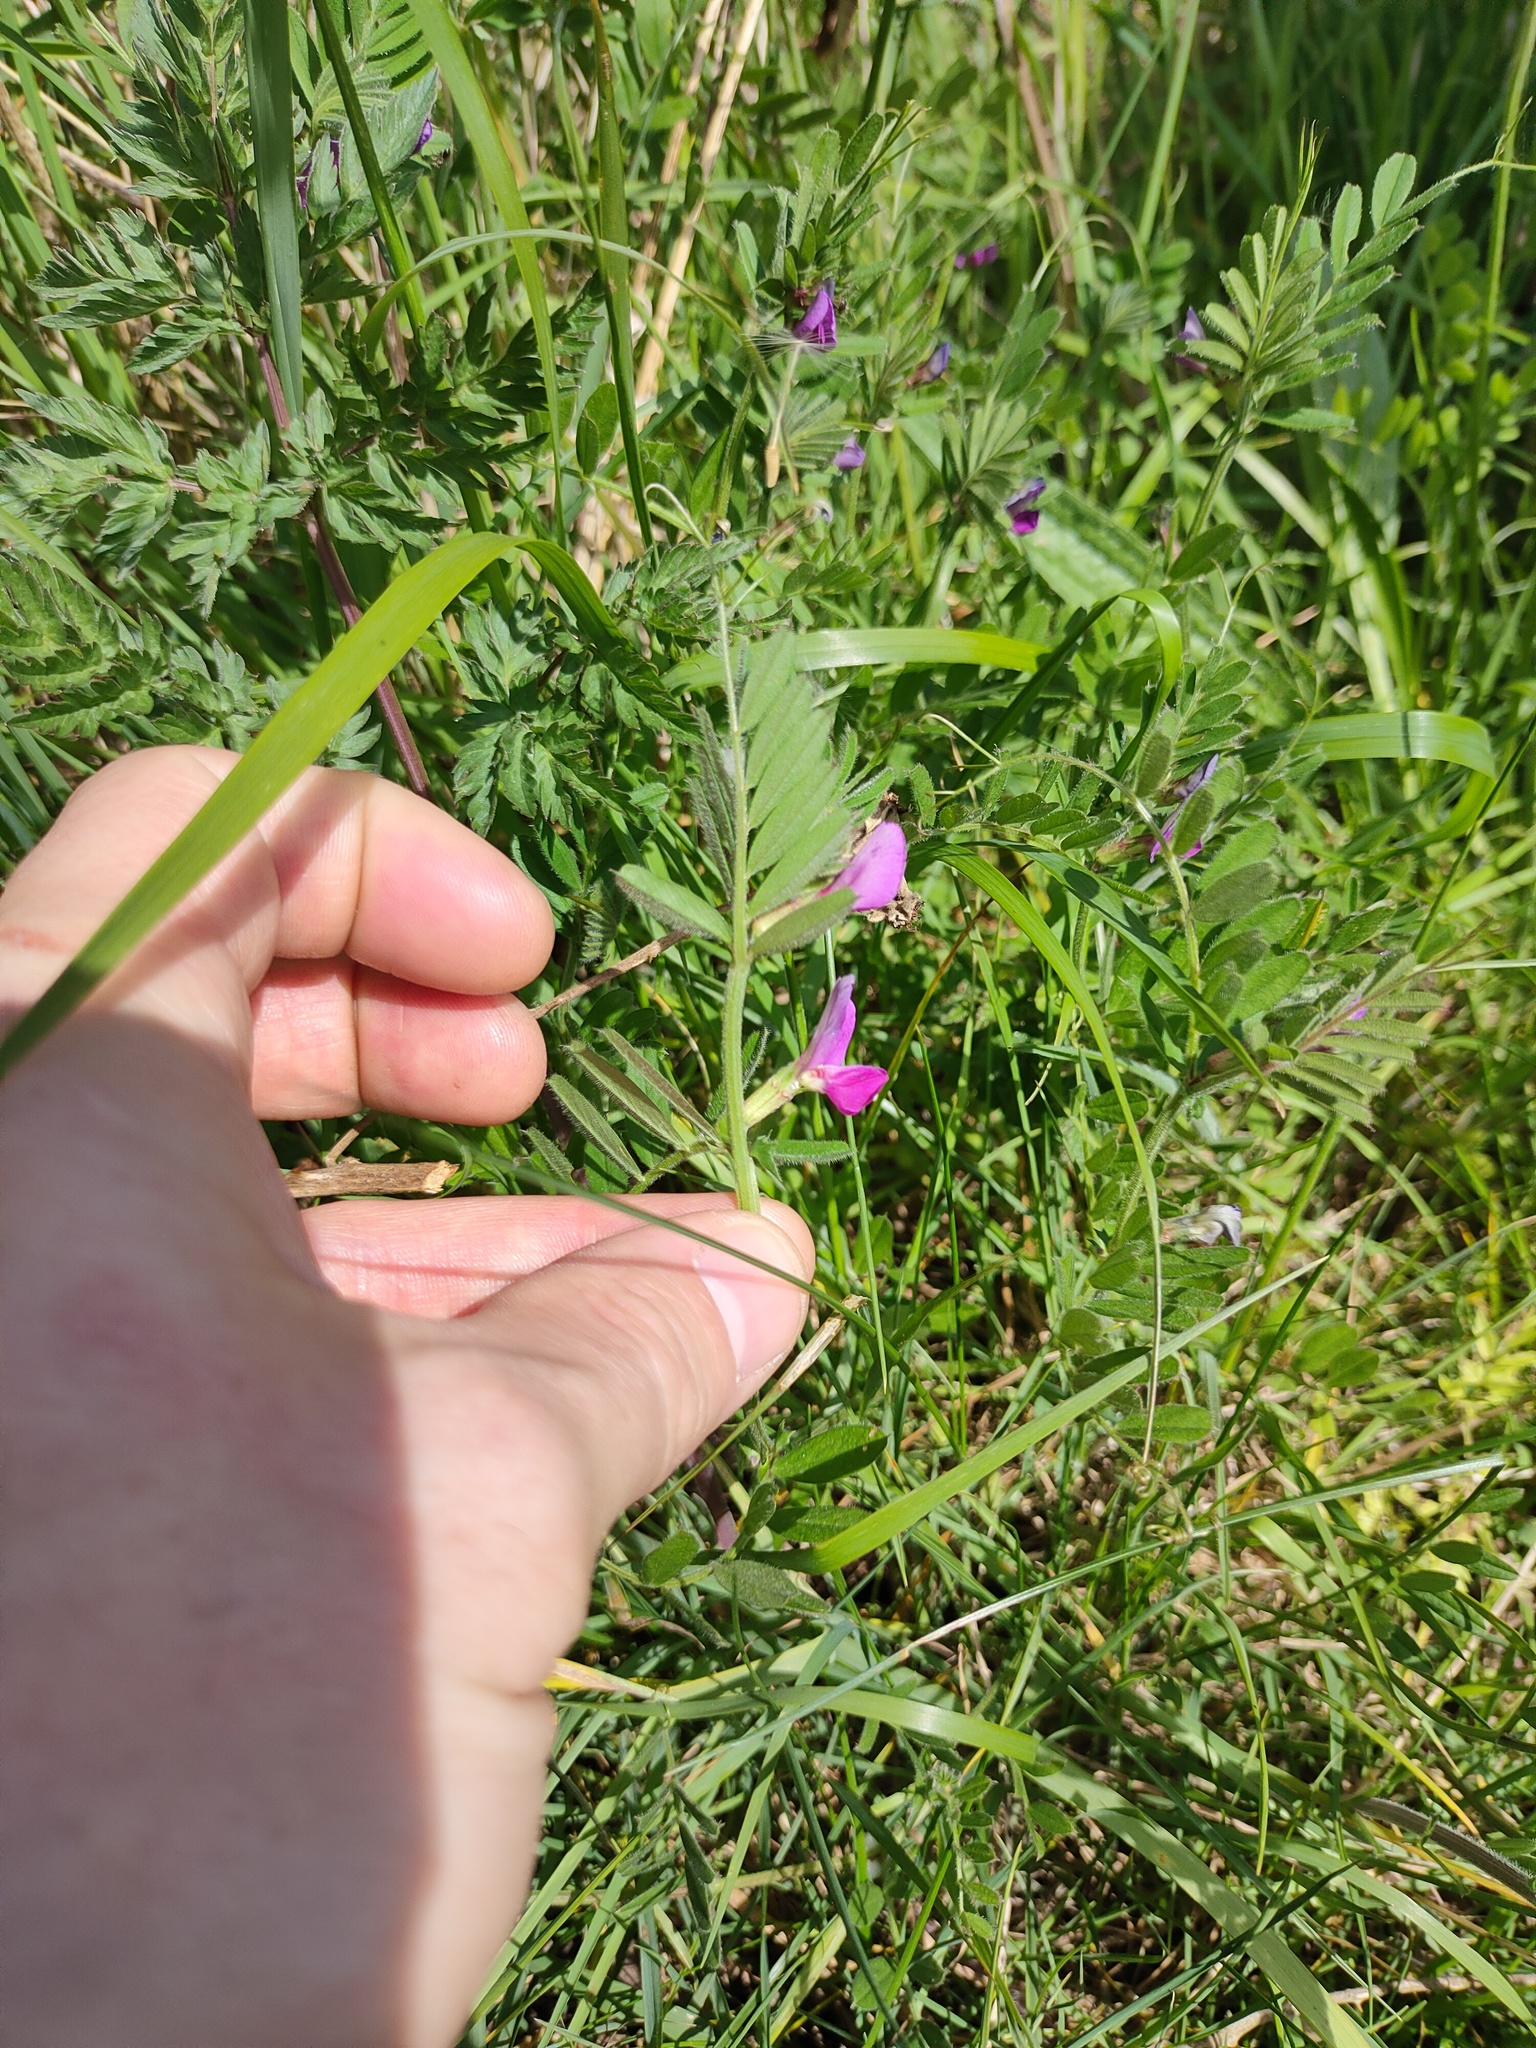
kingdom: Plantae
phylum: Tracheophyta
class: Magnoliopsida
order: Fabales
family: Fabaceae
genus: Vicia
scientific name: Vicia sativa
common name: Garden vetch
